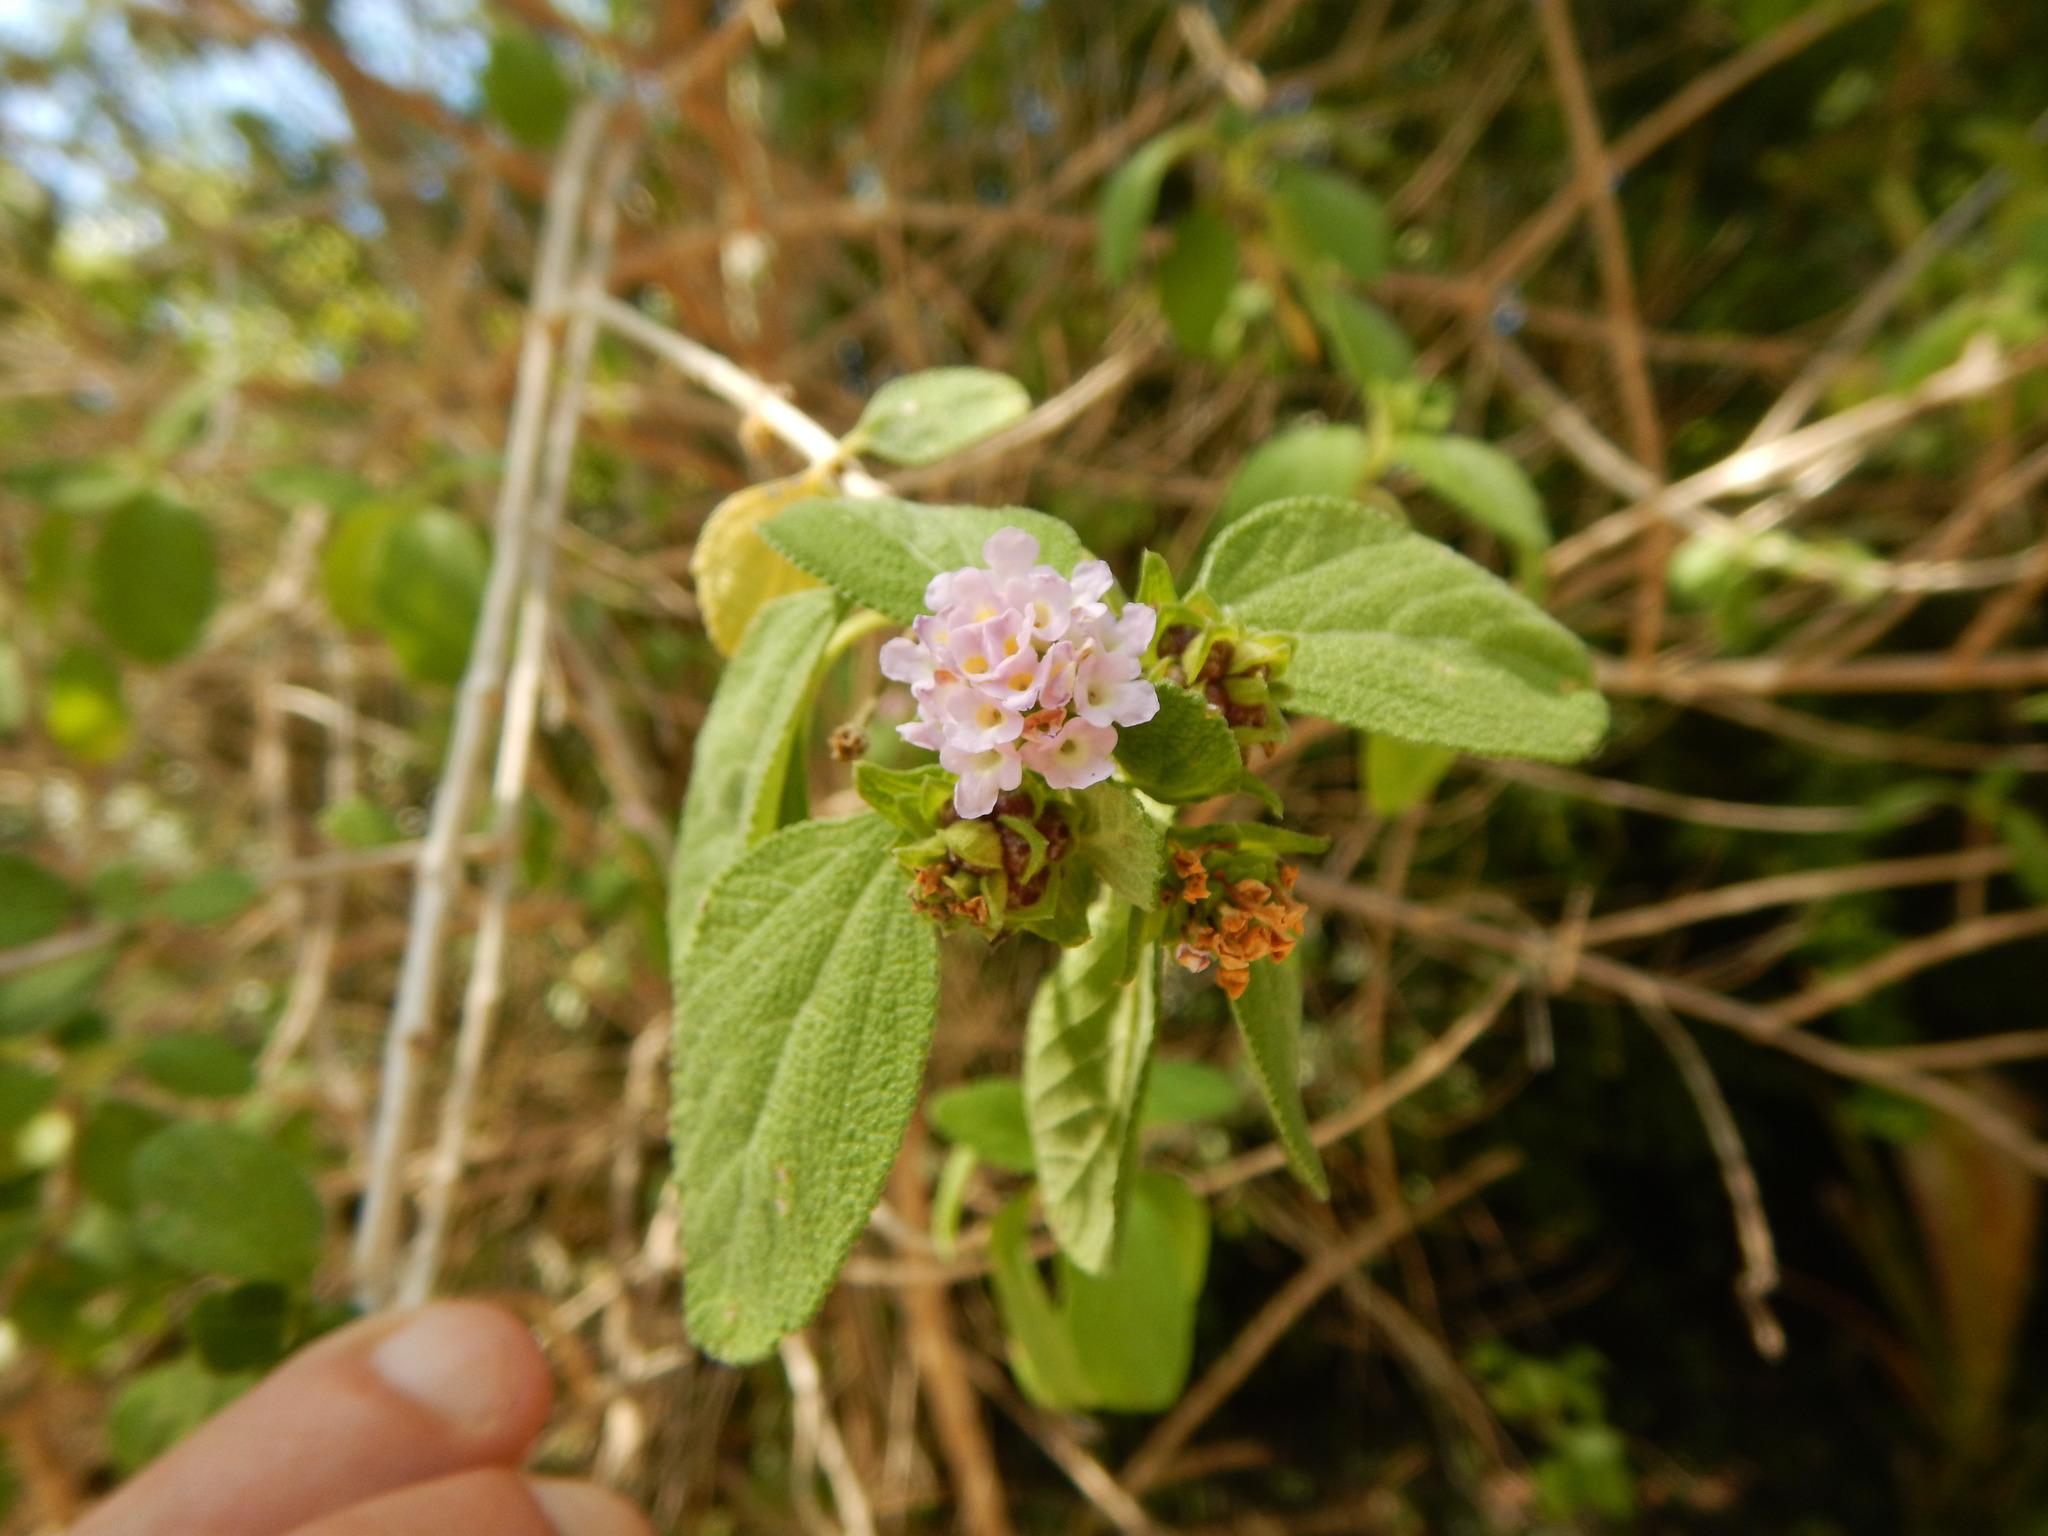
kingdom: Plantae
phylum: Tracheophyta
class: Magnoliopsida
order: Lamiales
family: Verbenaceae
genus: Lantana
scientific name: Lantana involucrata
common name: Black sage
